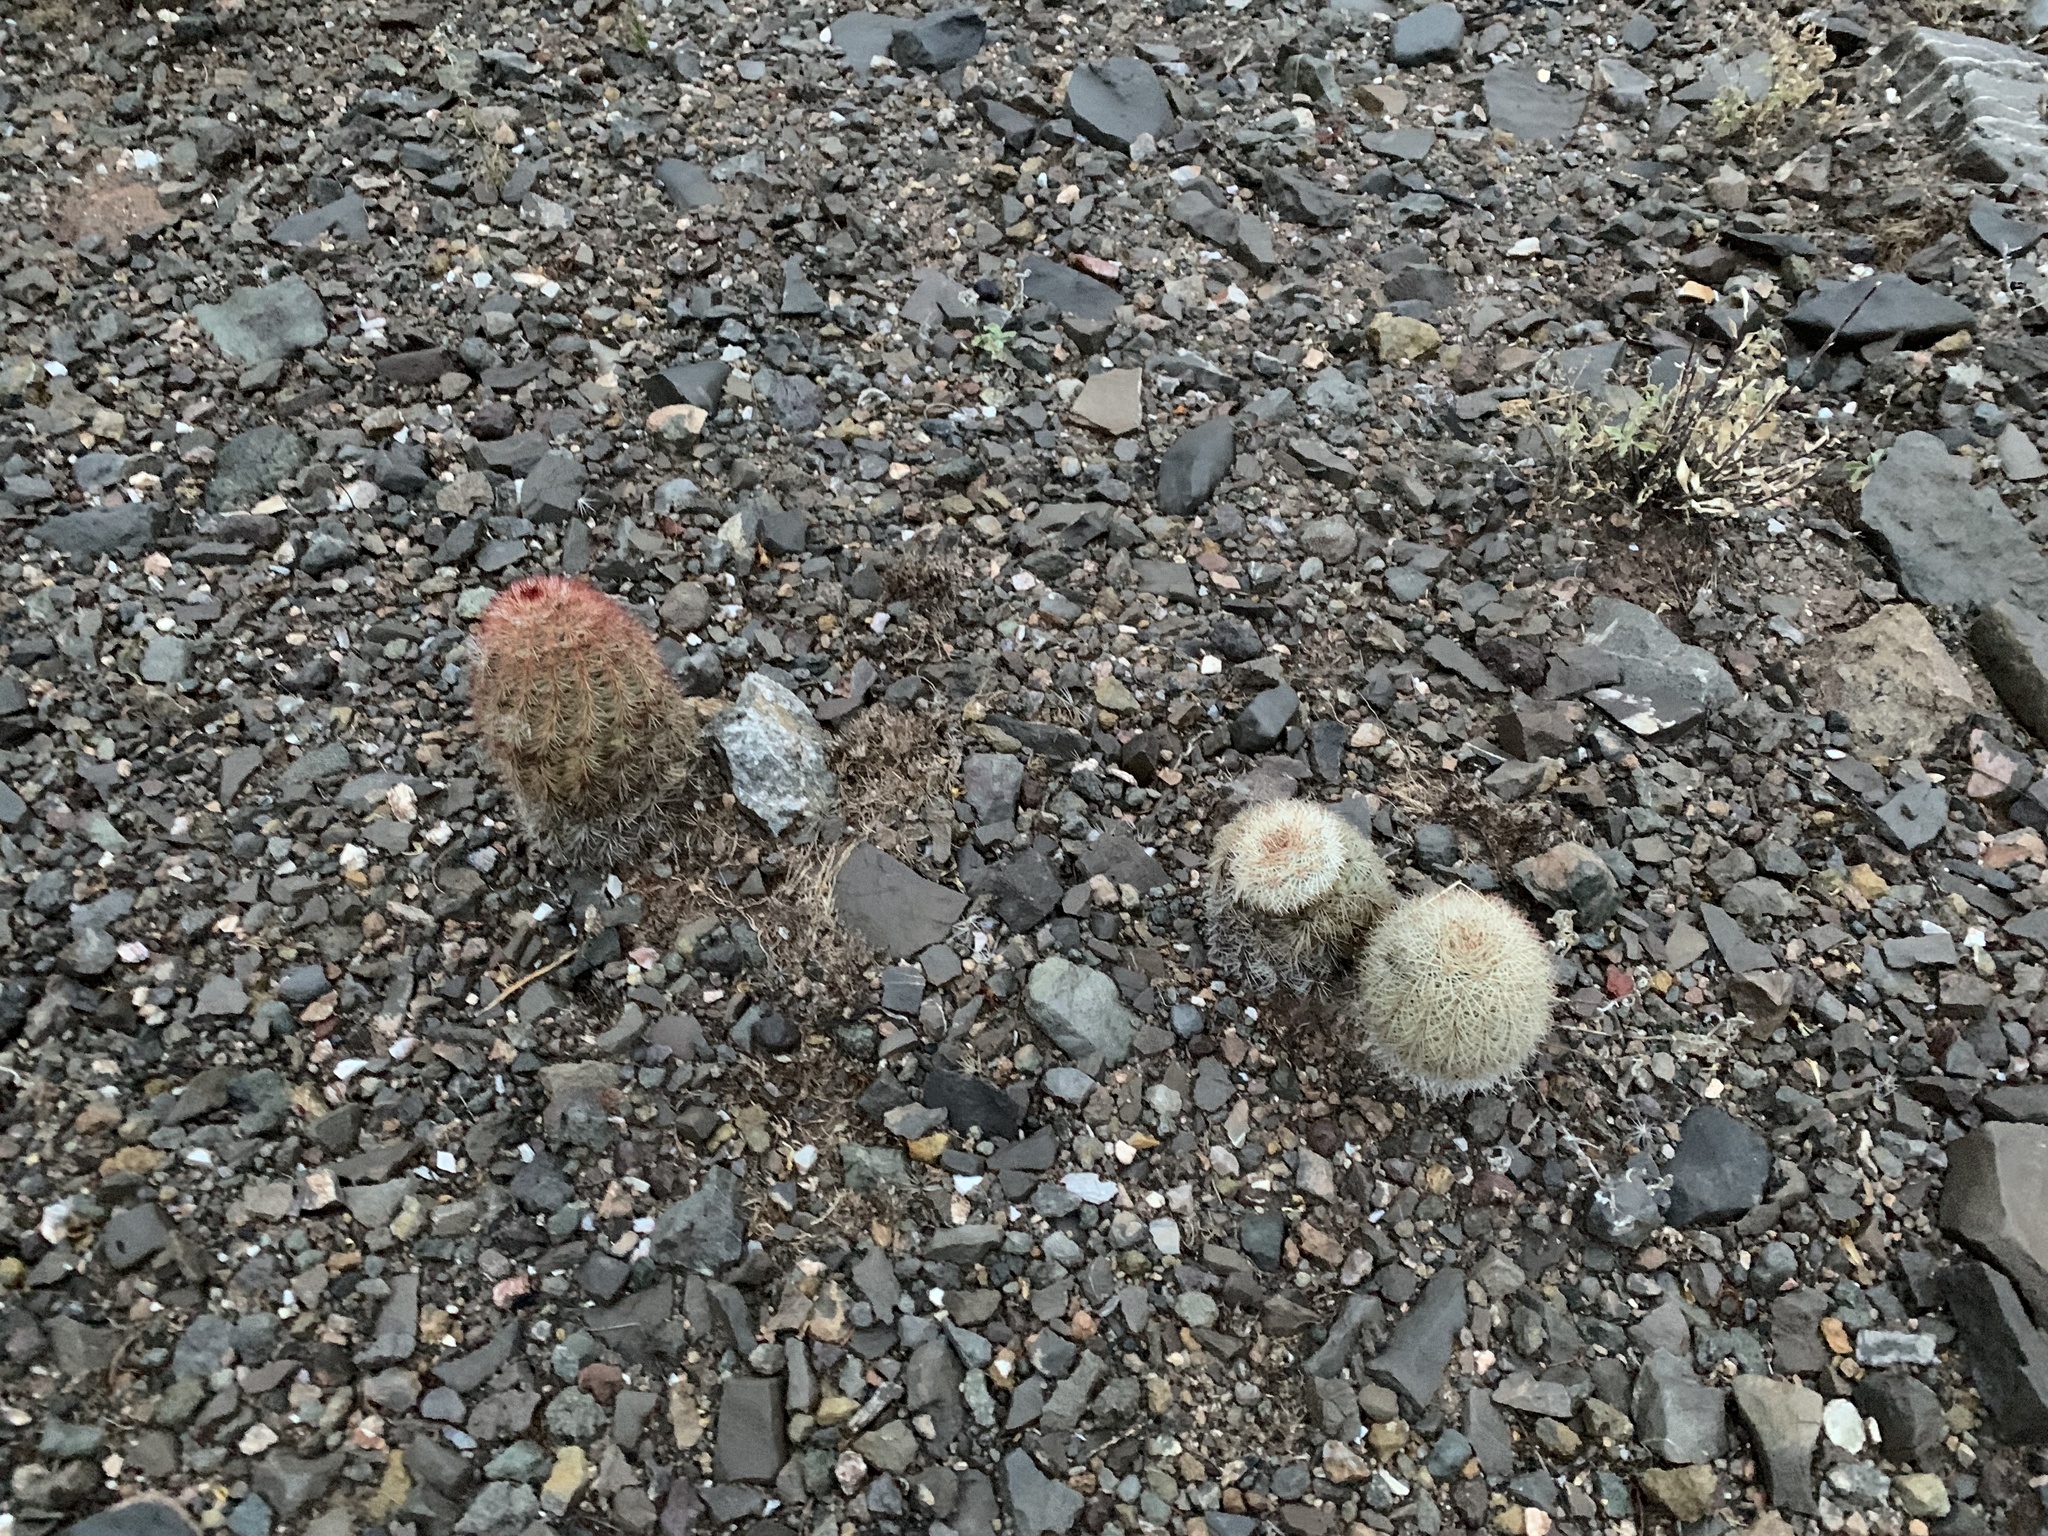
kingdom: Plantae
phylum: Tracheophyta
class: Magnoliopsida
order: Caryophyllales
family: Cactaceae
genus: Echinocereus
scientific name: Echinocereus dasyacanthus
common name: Spiny hedgehog cactus
